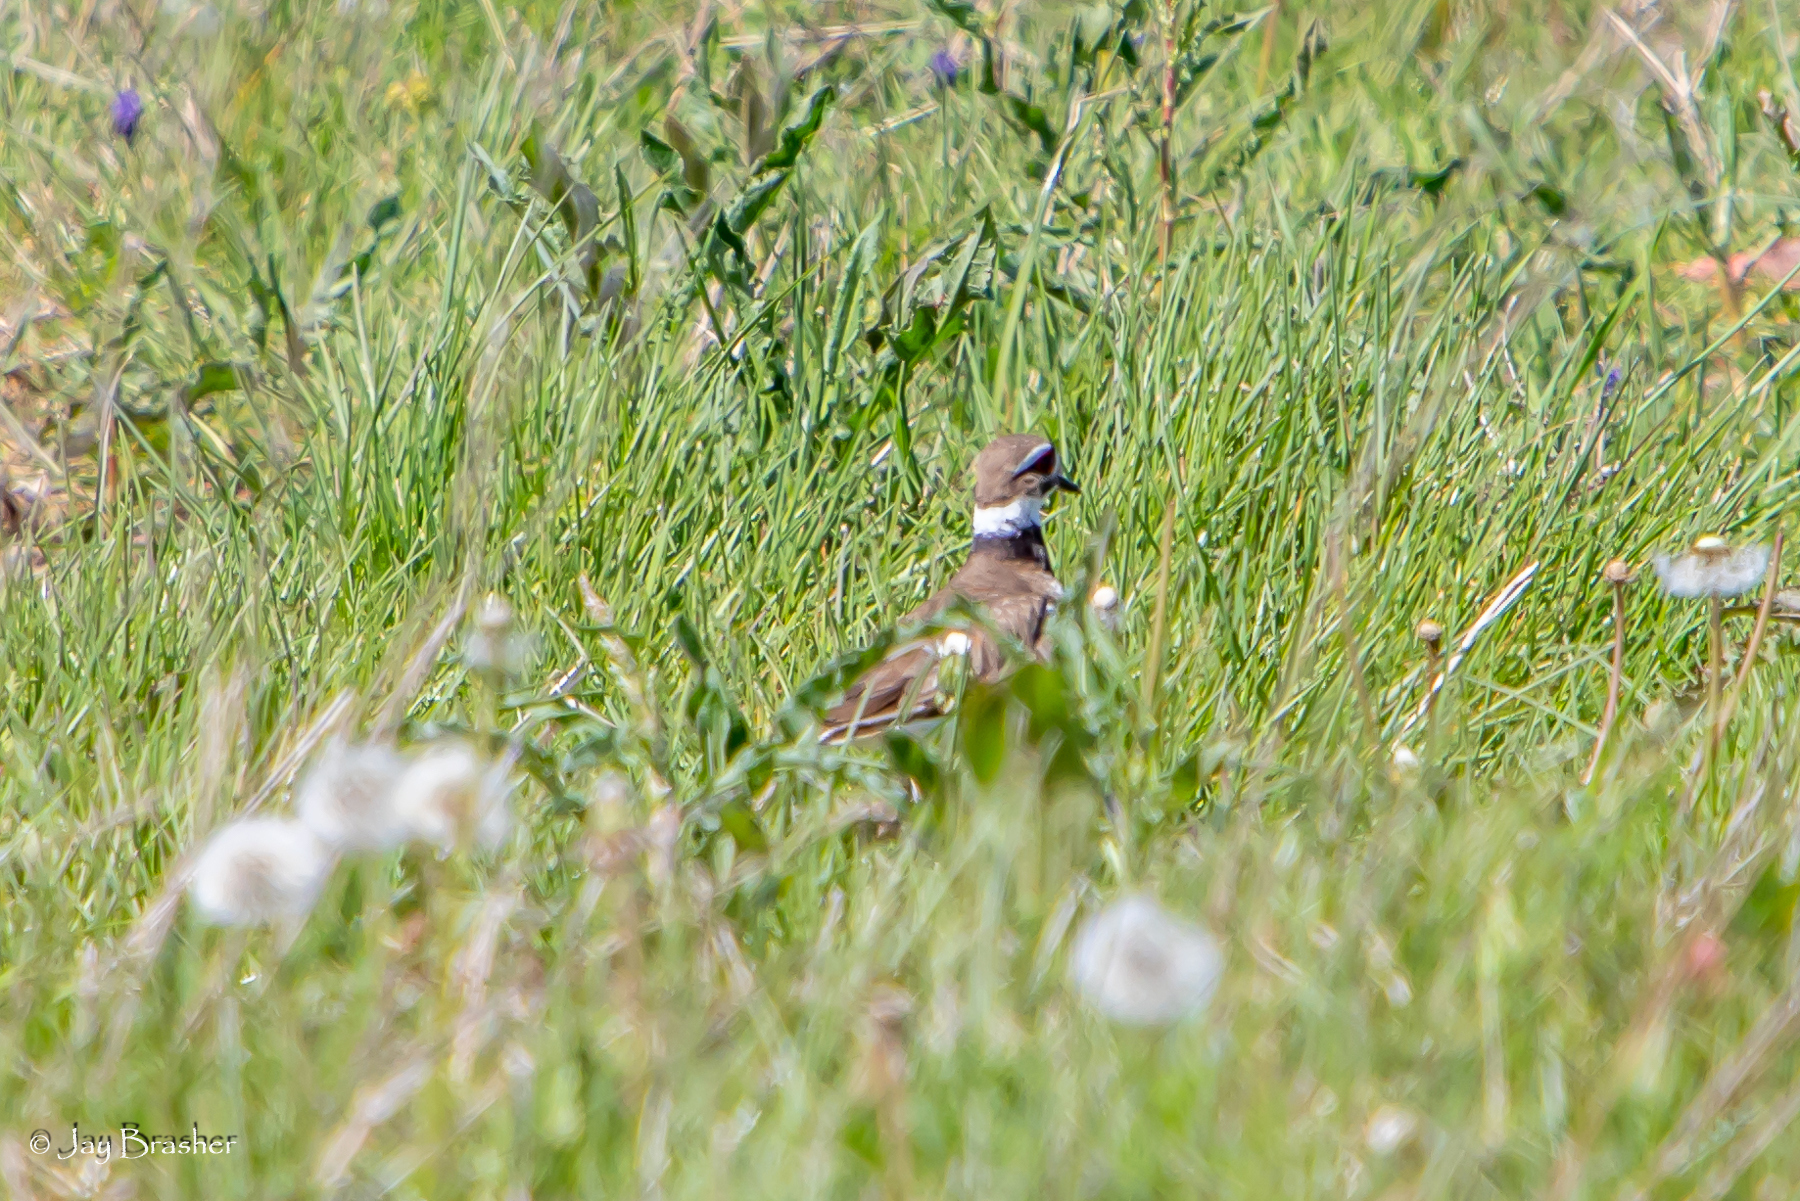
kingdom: Animalia
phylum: Chordata
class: Aves
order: Charadriiformes
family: Charadriidae
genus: Charadrius
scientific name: Charadrius vociferus
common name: Killdeer
